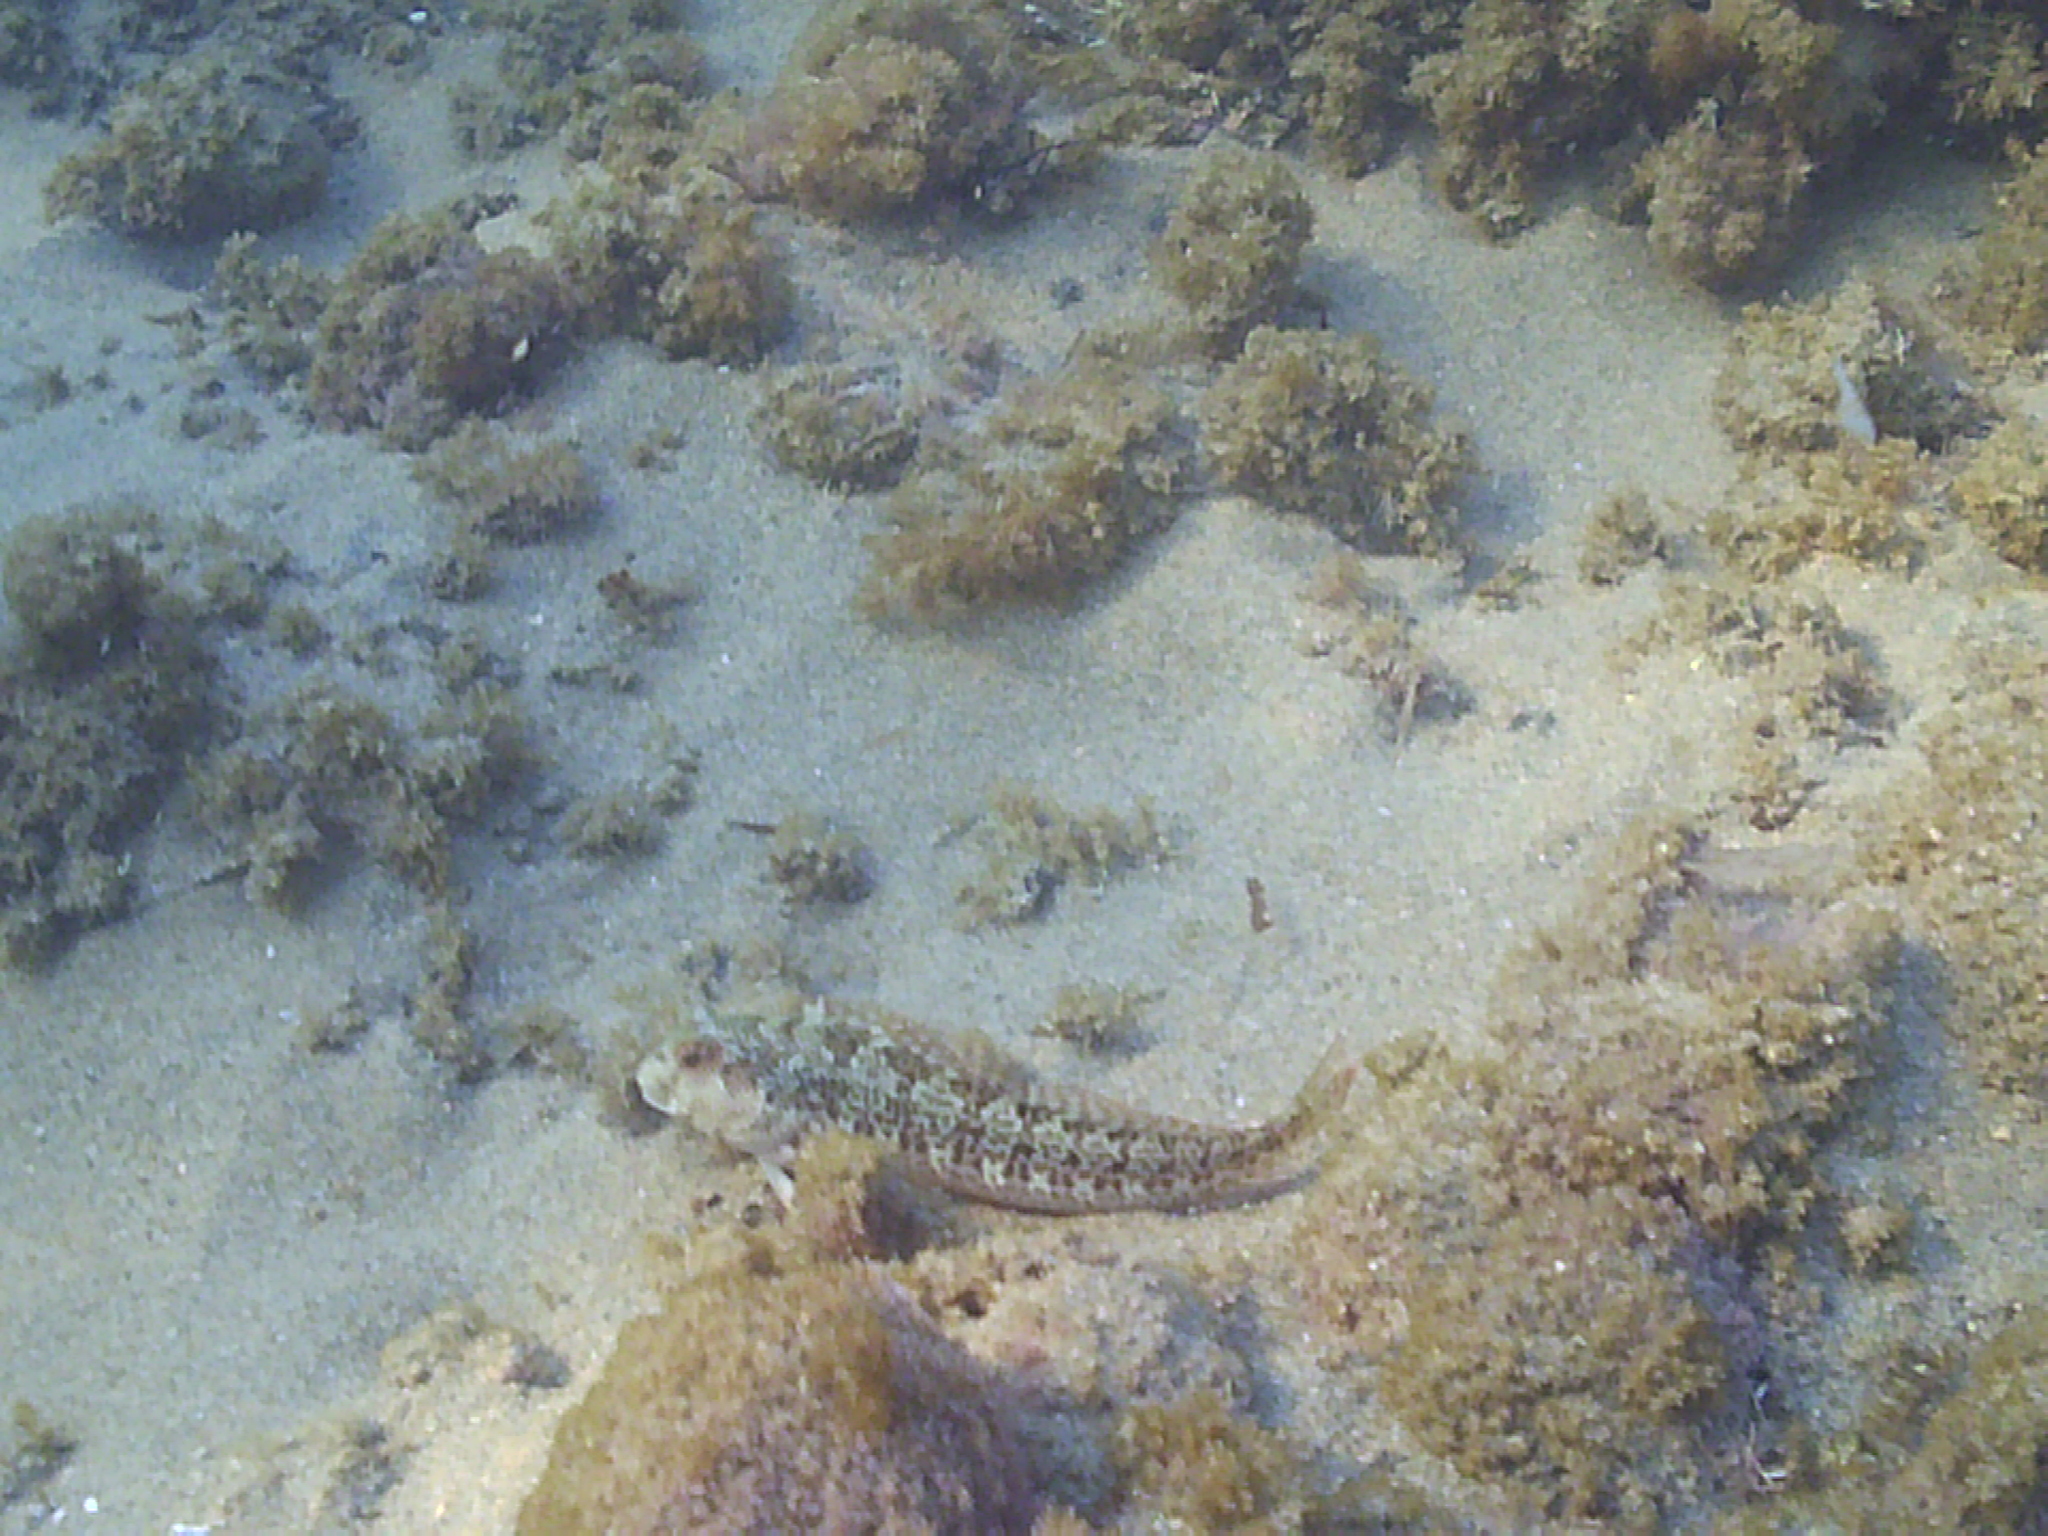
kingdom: Animalia
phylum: Chordata
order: Perciformes
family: Blenniidae
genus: Parablennius
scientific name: Parablennius pilicornis
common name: Ringneck blenny
